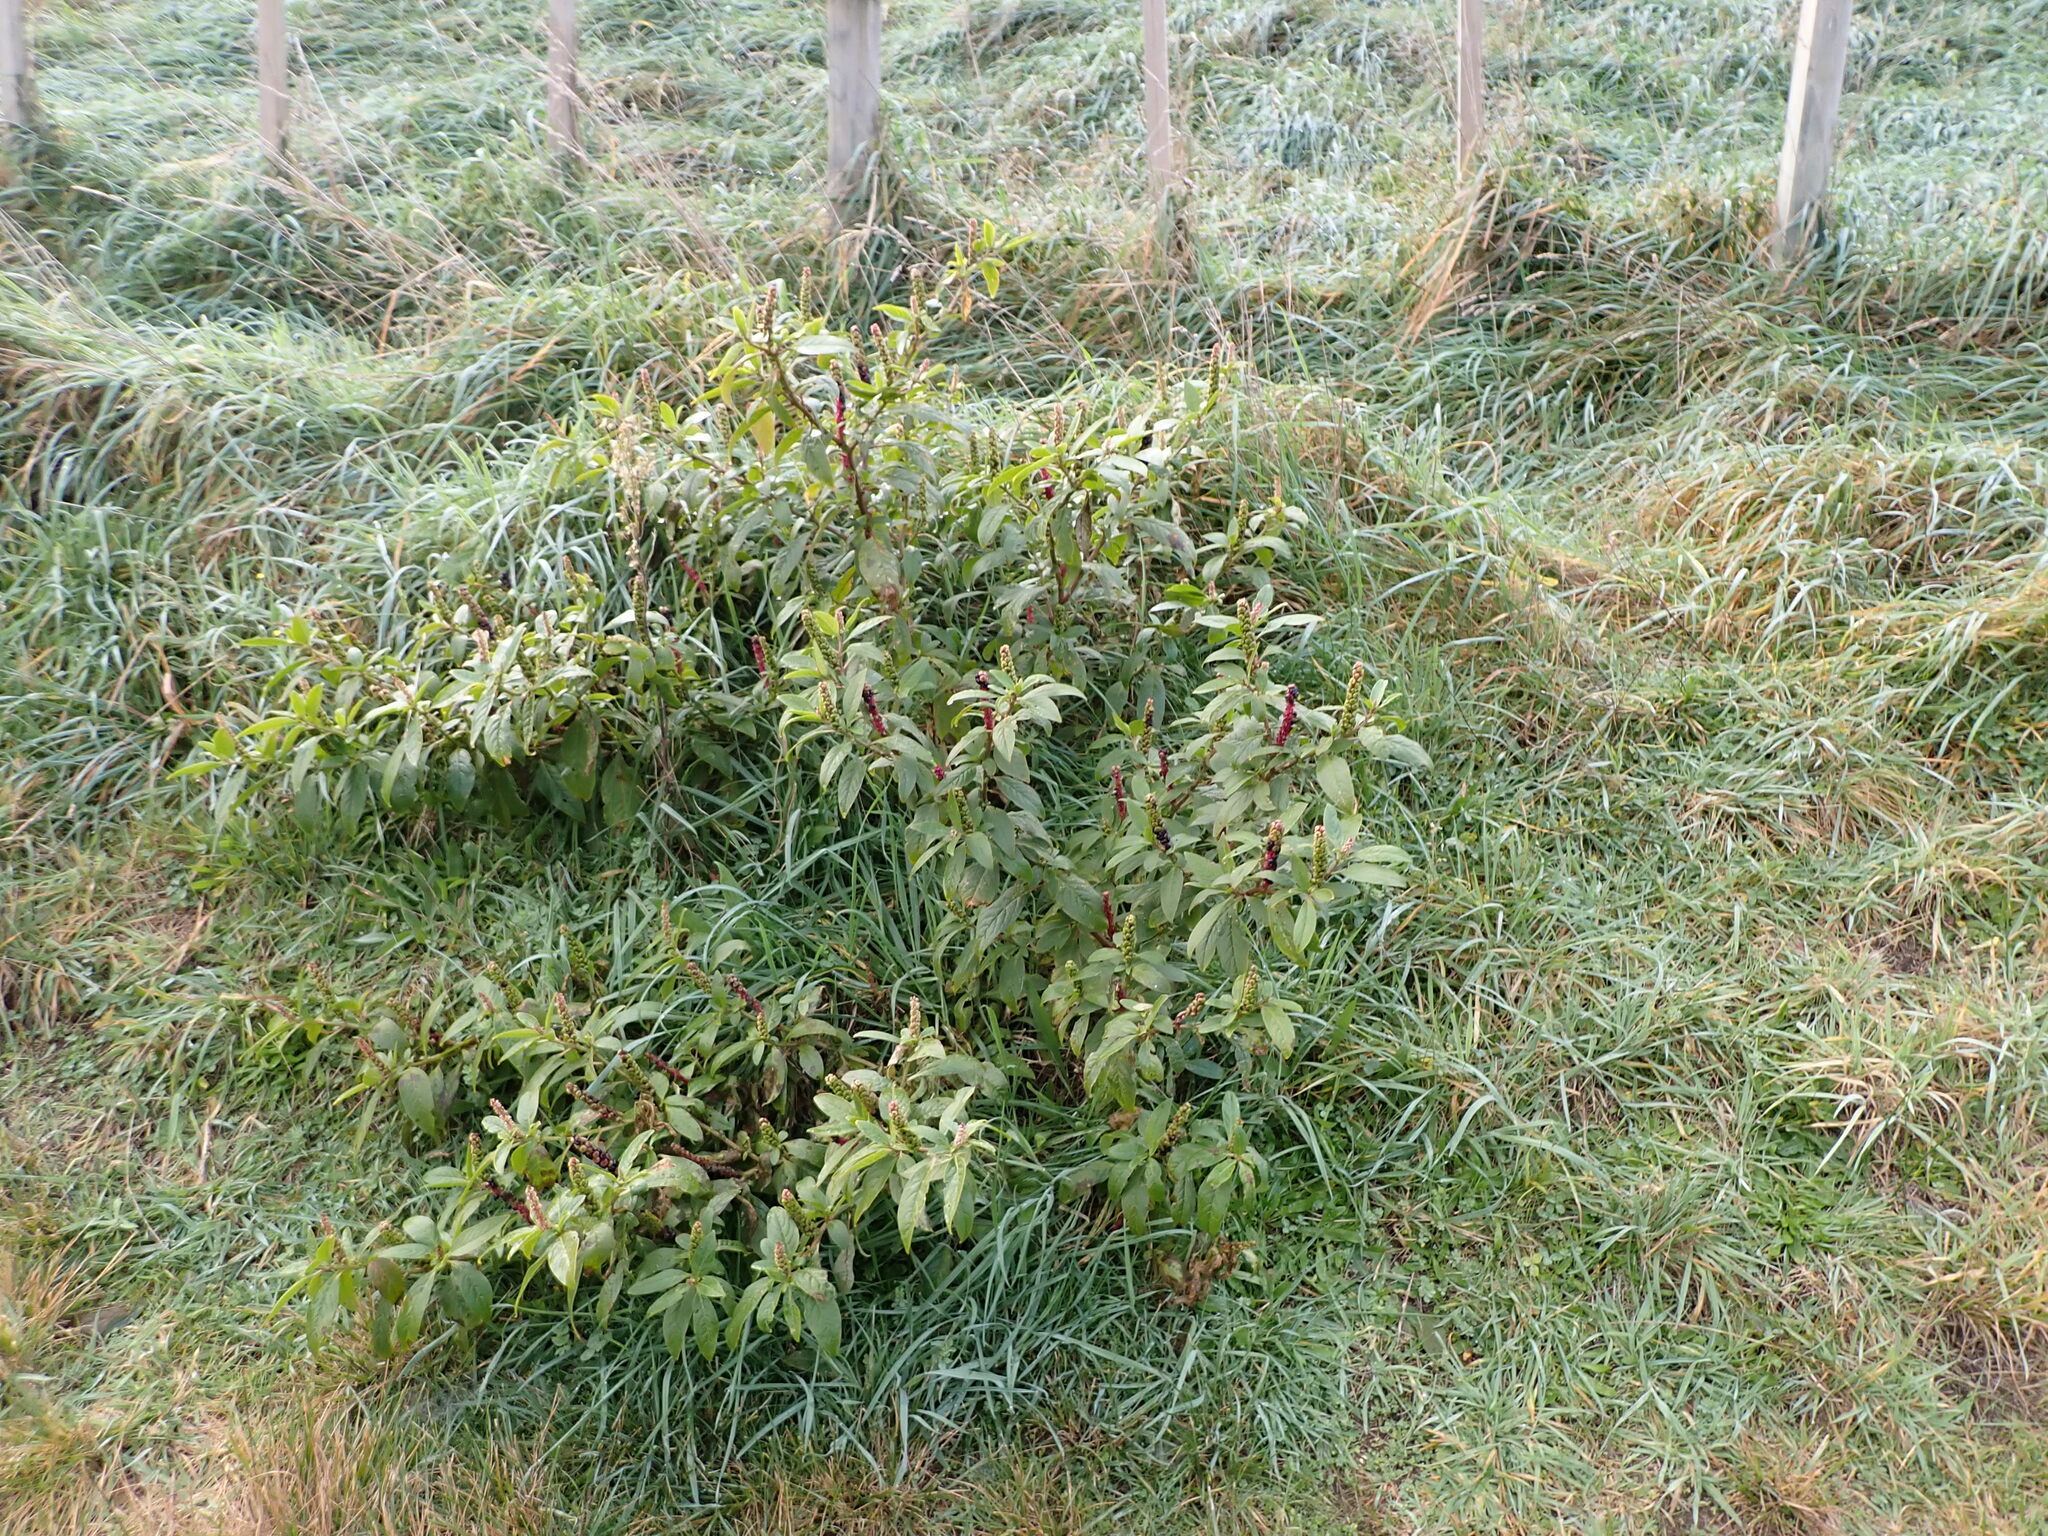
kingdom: Plantae
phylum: Tracheophyta
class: Magnoliopsida
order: Caryophyllales
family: Phytolaccaceae
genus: Phytolacca
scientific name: Phytolacca icosandra
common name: Button pokeweed
